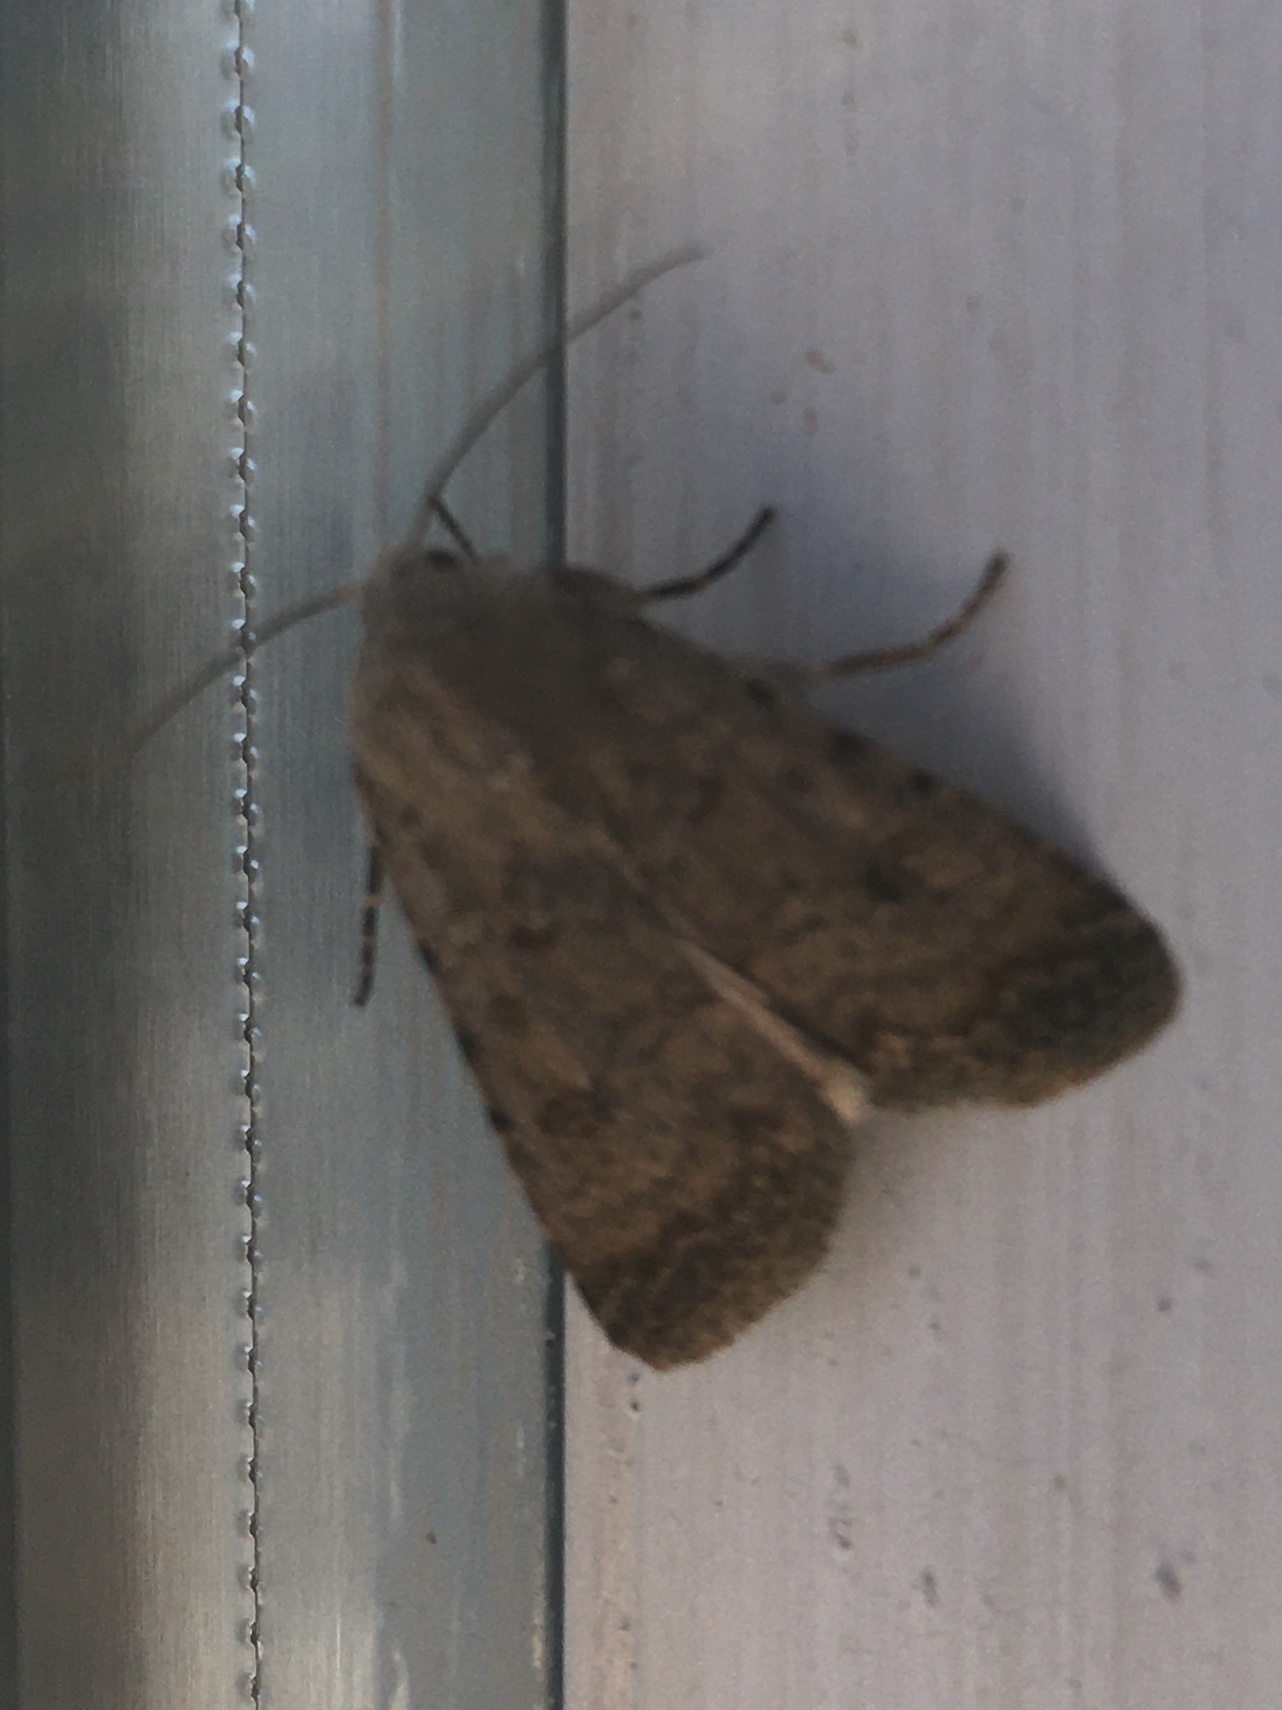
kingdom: Animalia
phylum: Arthropoda
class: Insecta
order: Lepidoptera
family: Noctuidae
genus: Caradrina
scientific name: Caradrina clavipalpis
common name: Pale mottled willow
